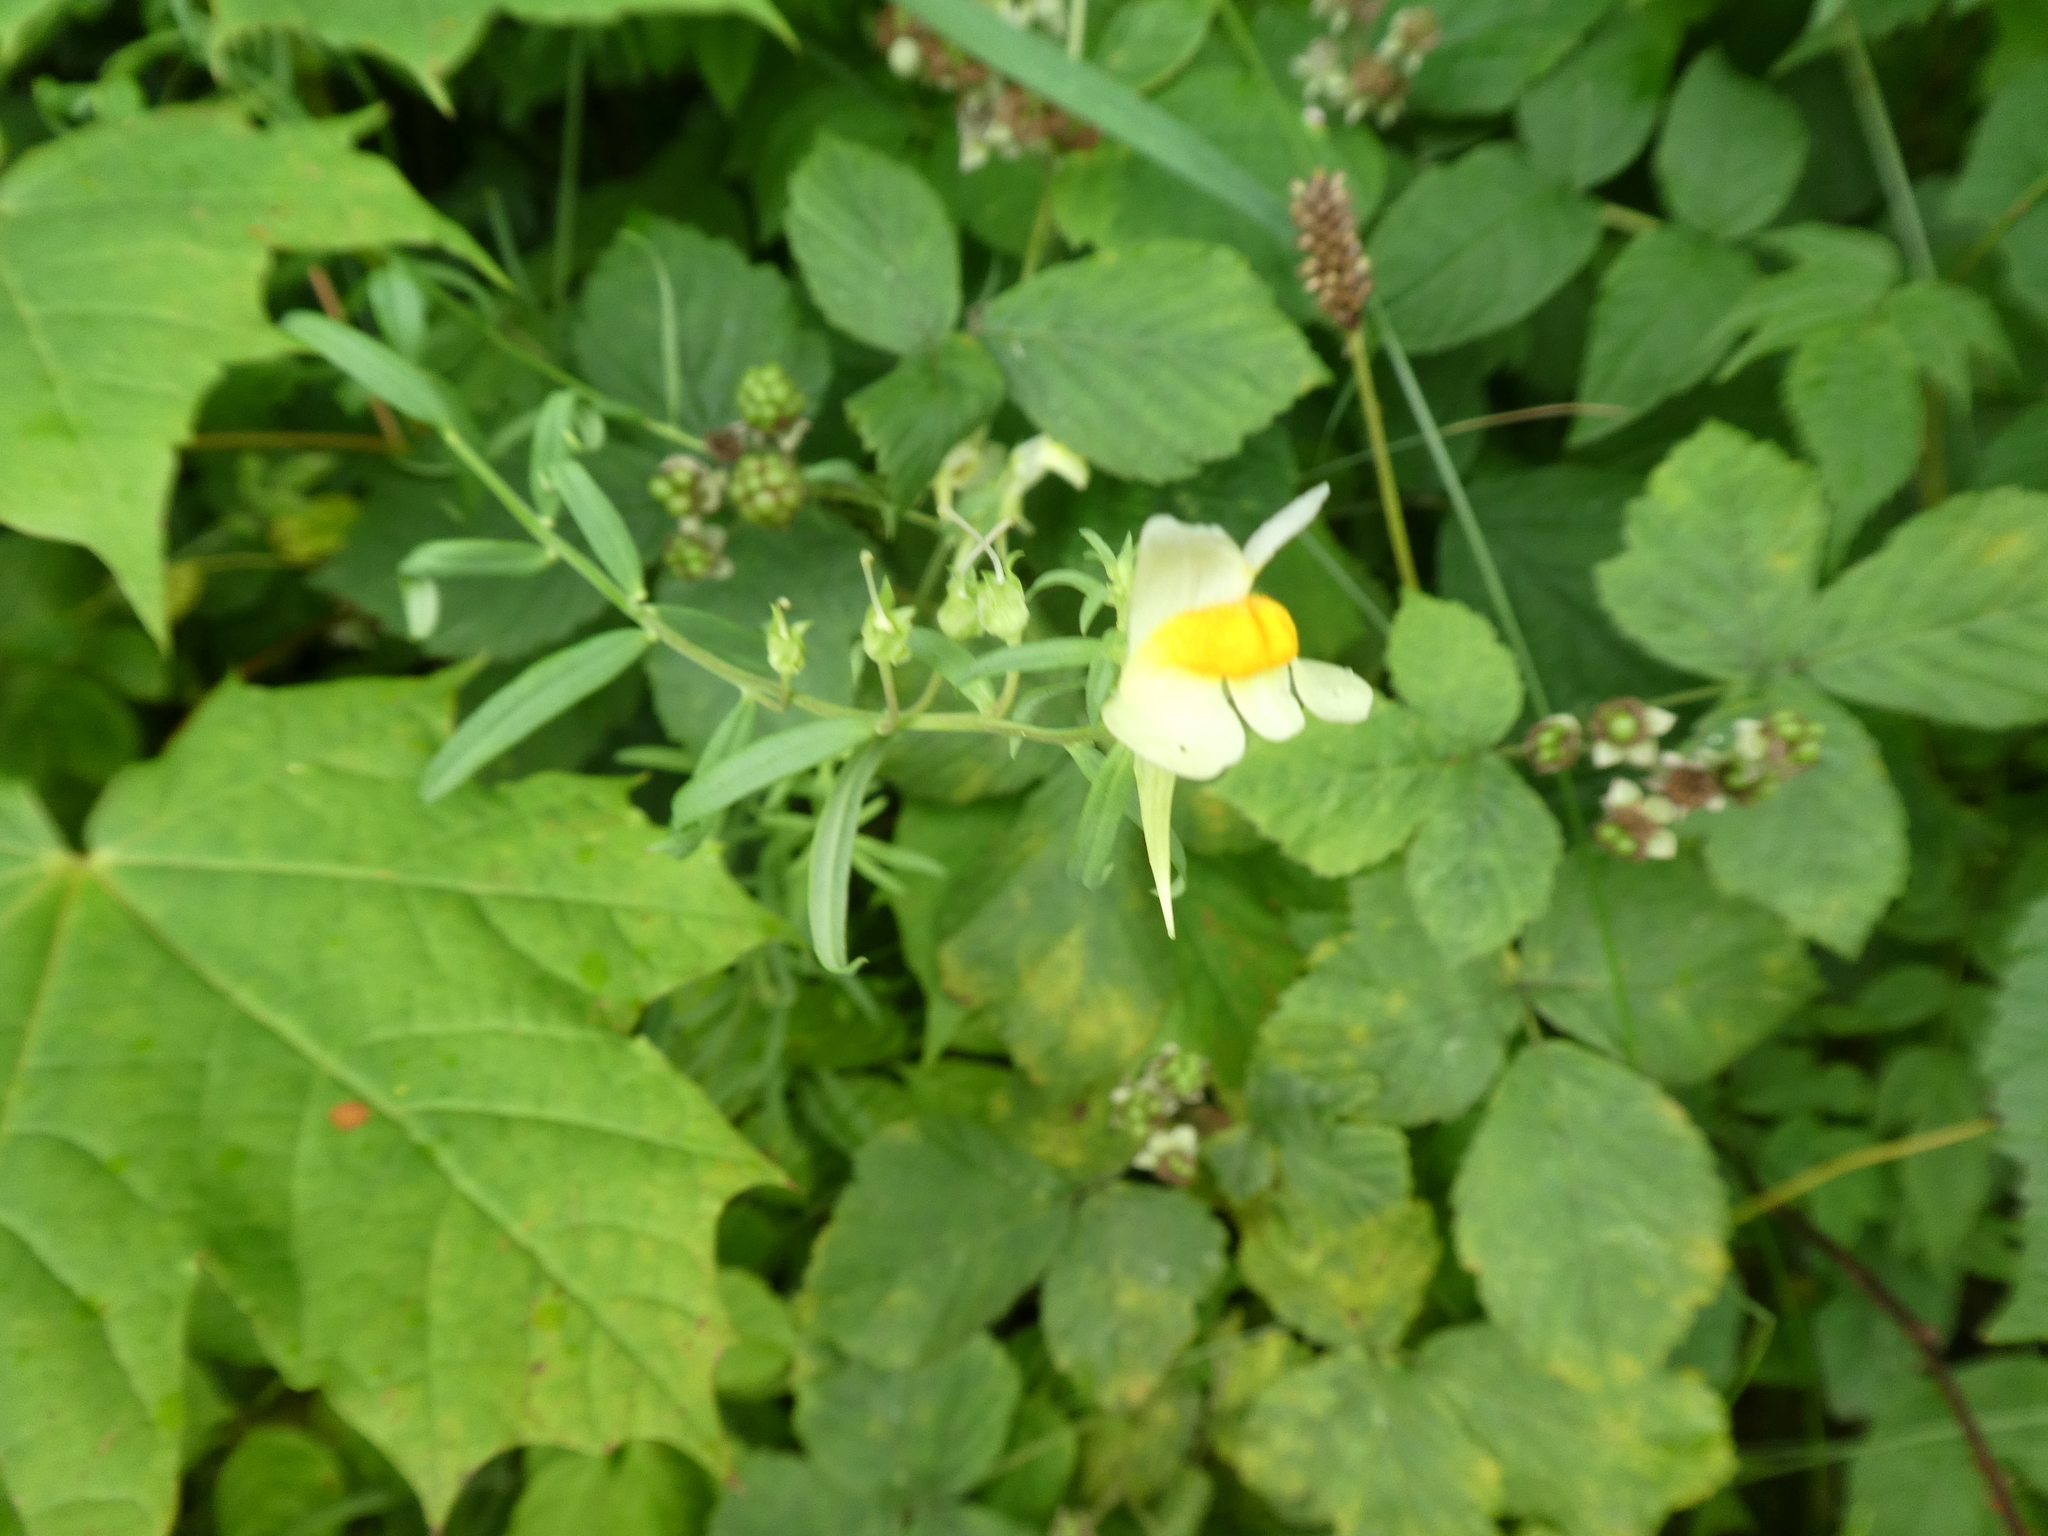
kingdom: Plantae
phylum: Tracheophyta
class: Magnoliopsida
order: Lamiales
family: Plantaginaceae
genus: Linaria
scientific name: Linaria vulgaris
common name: Butter and eggs
